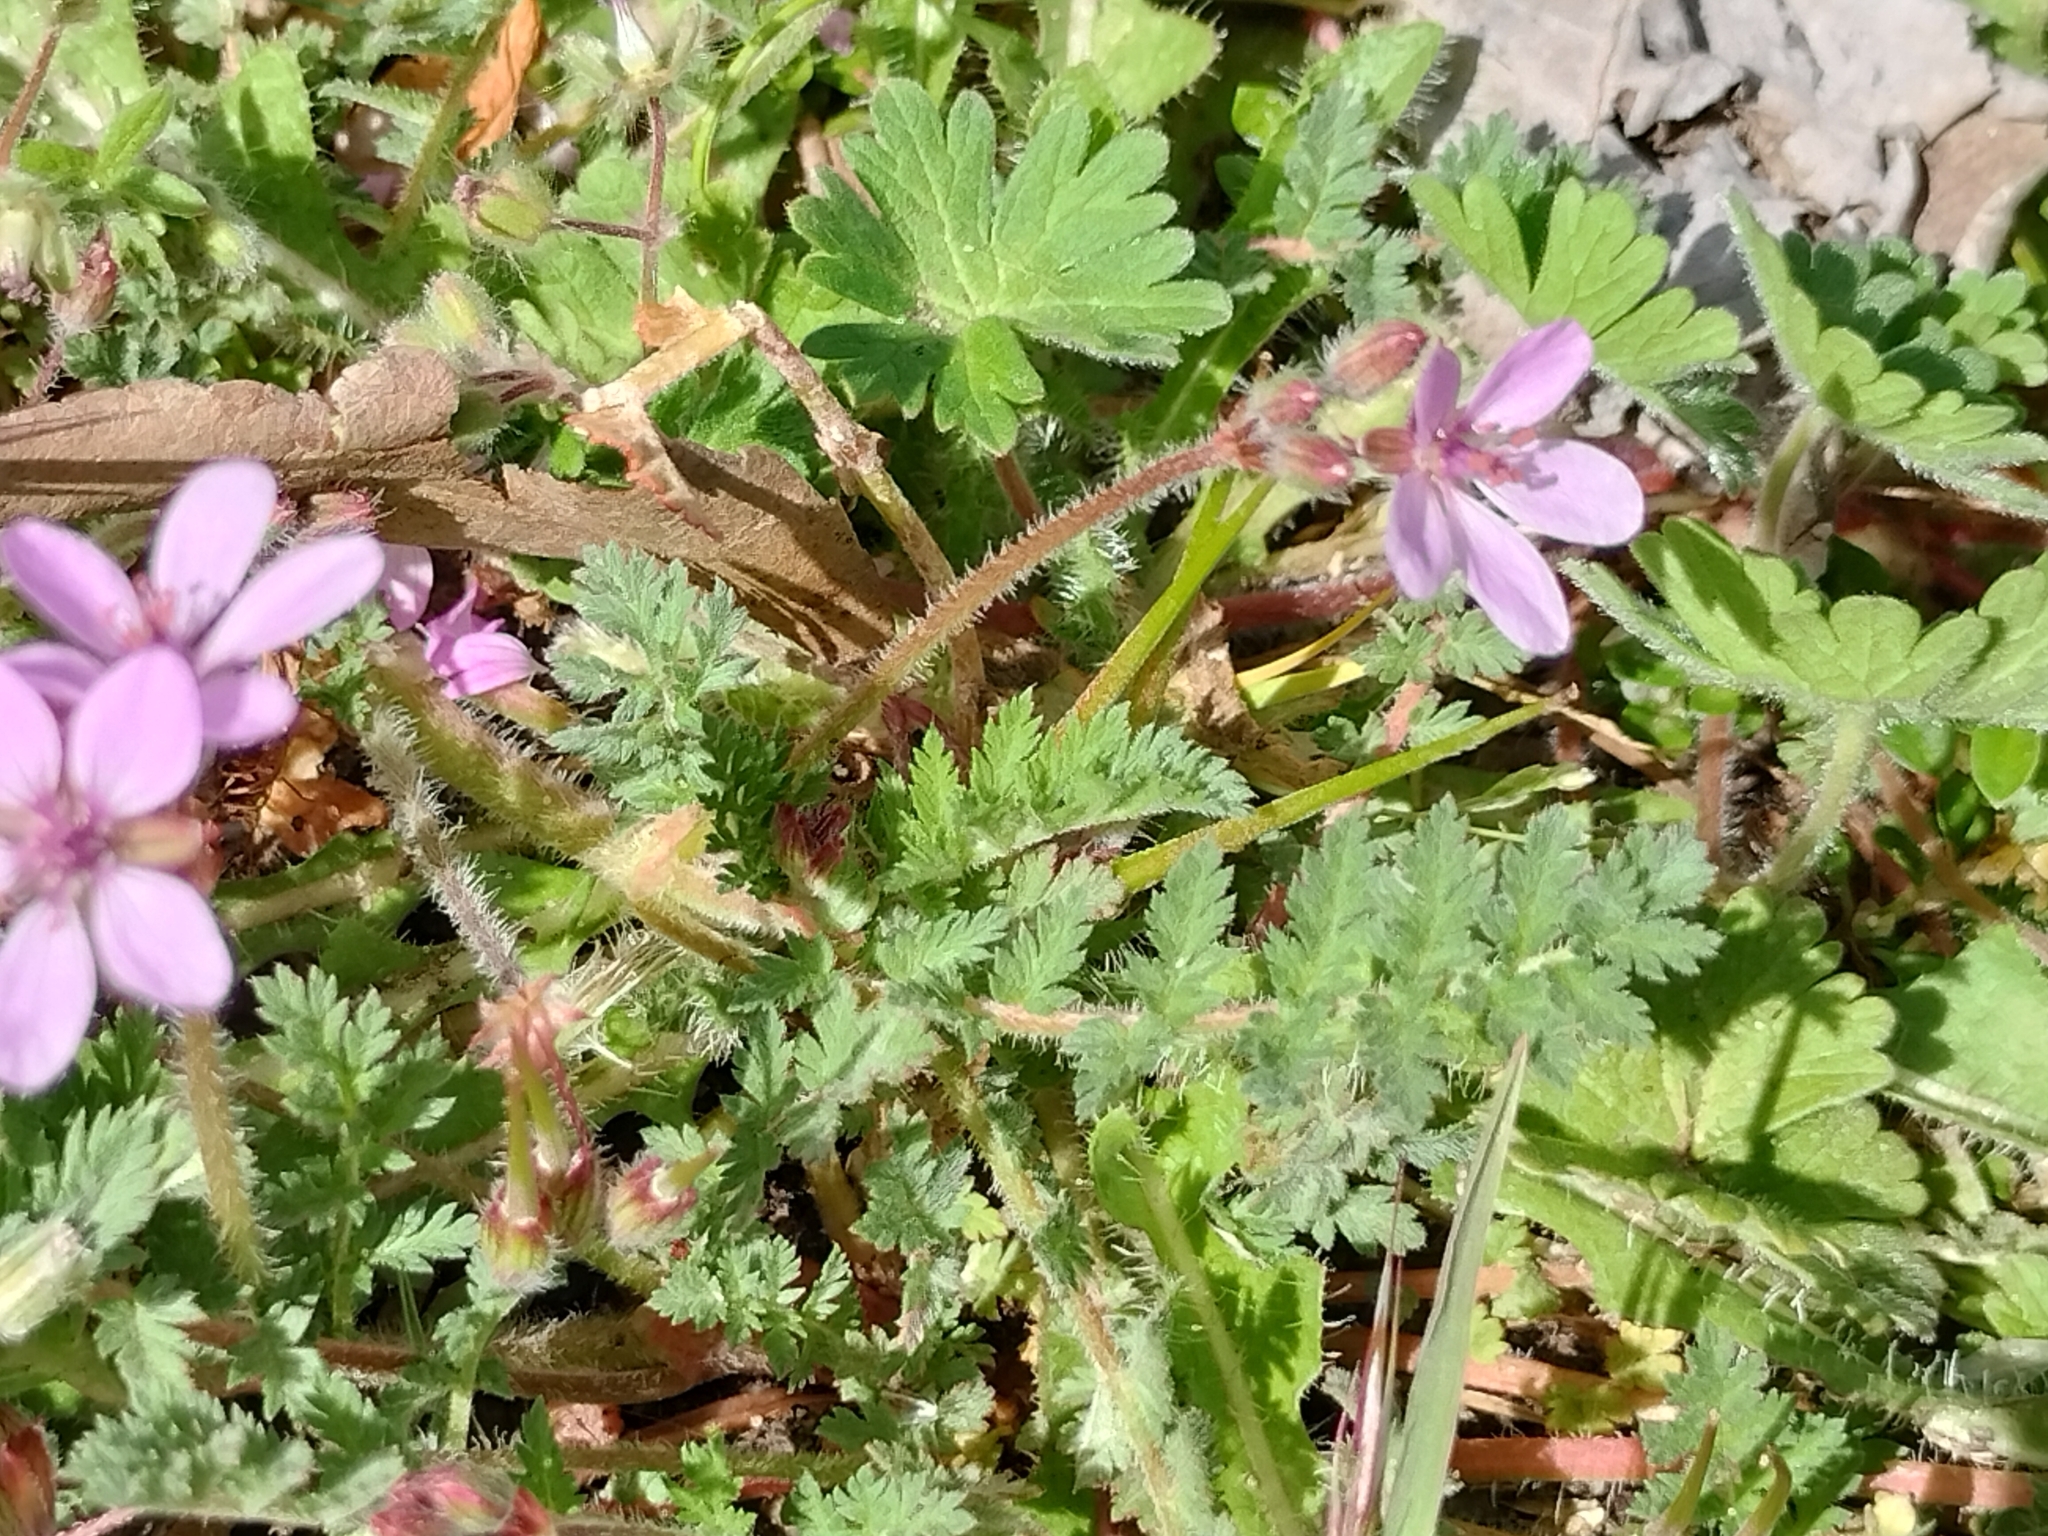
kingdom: Plantae
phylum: Tracheophyta
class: Magnoliopsida
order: Geraniales
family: Geraniaceae
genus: Erodium
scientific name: Erodium cicutarium
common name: Common stork's-bill
